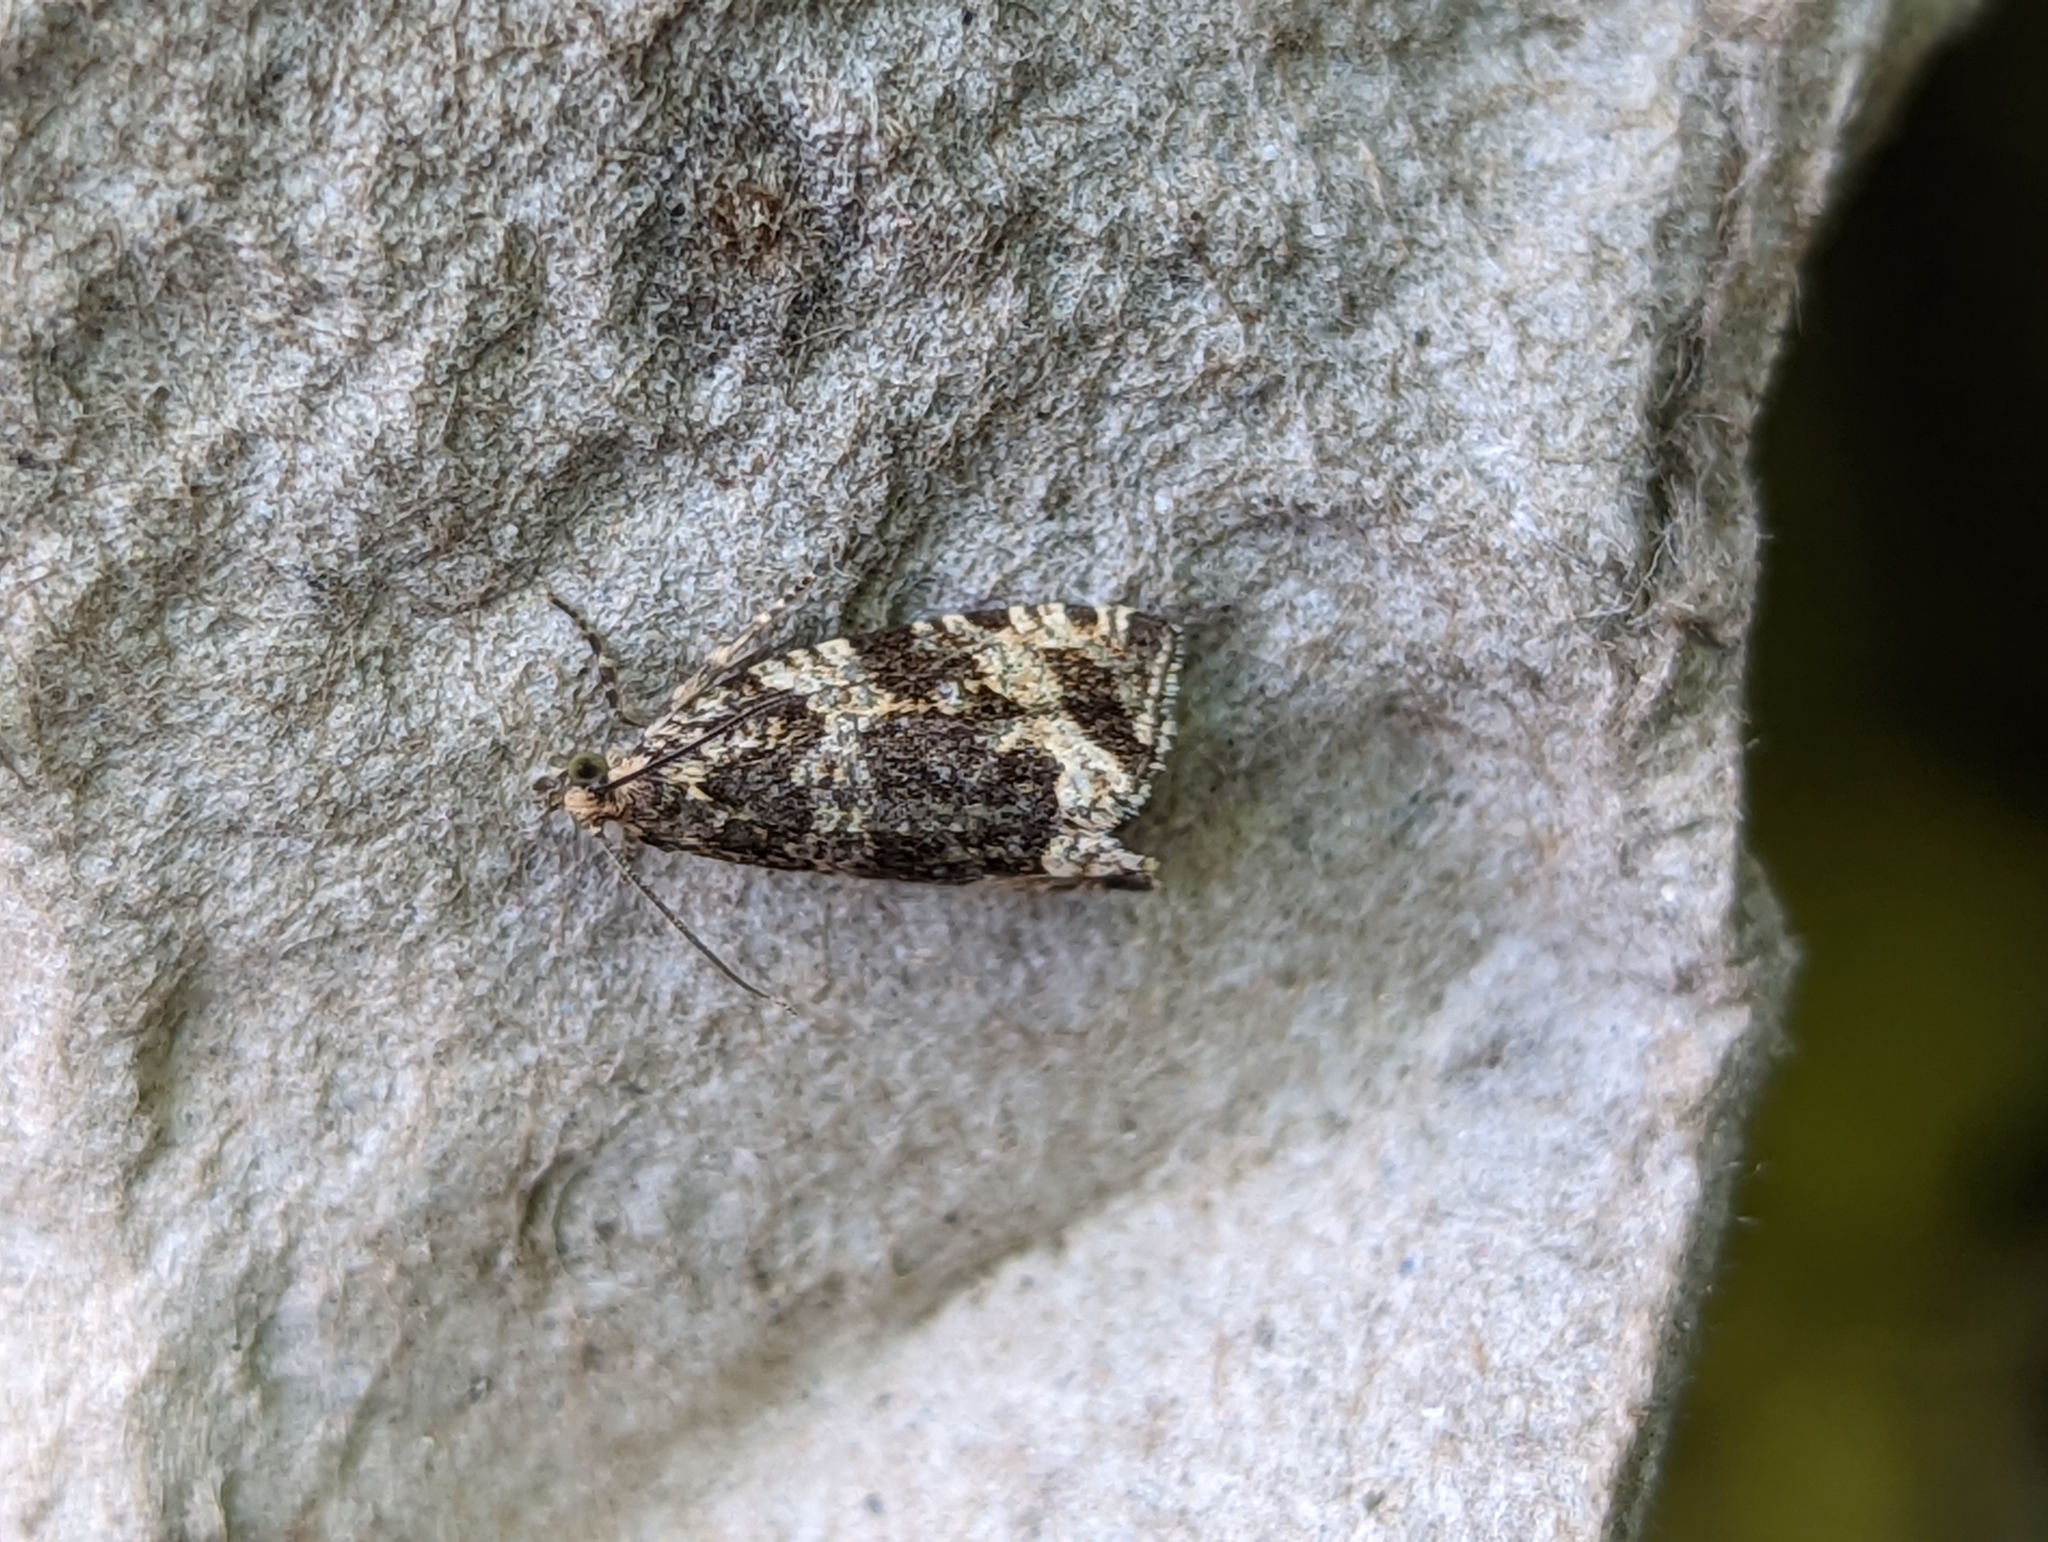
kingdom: Animalia
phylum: Arthropoda
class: Insecta
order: Lepidoptera
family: Tortricidae
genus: Syricoris
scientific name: Syricoris lacunana
